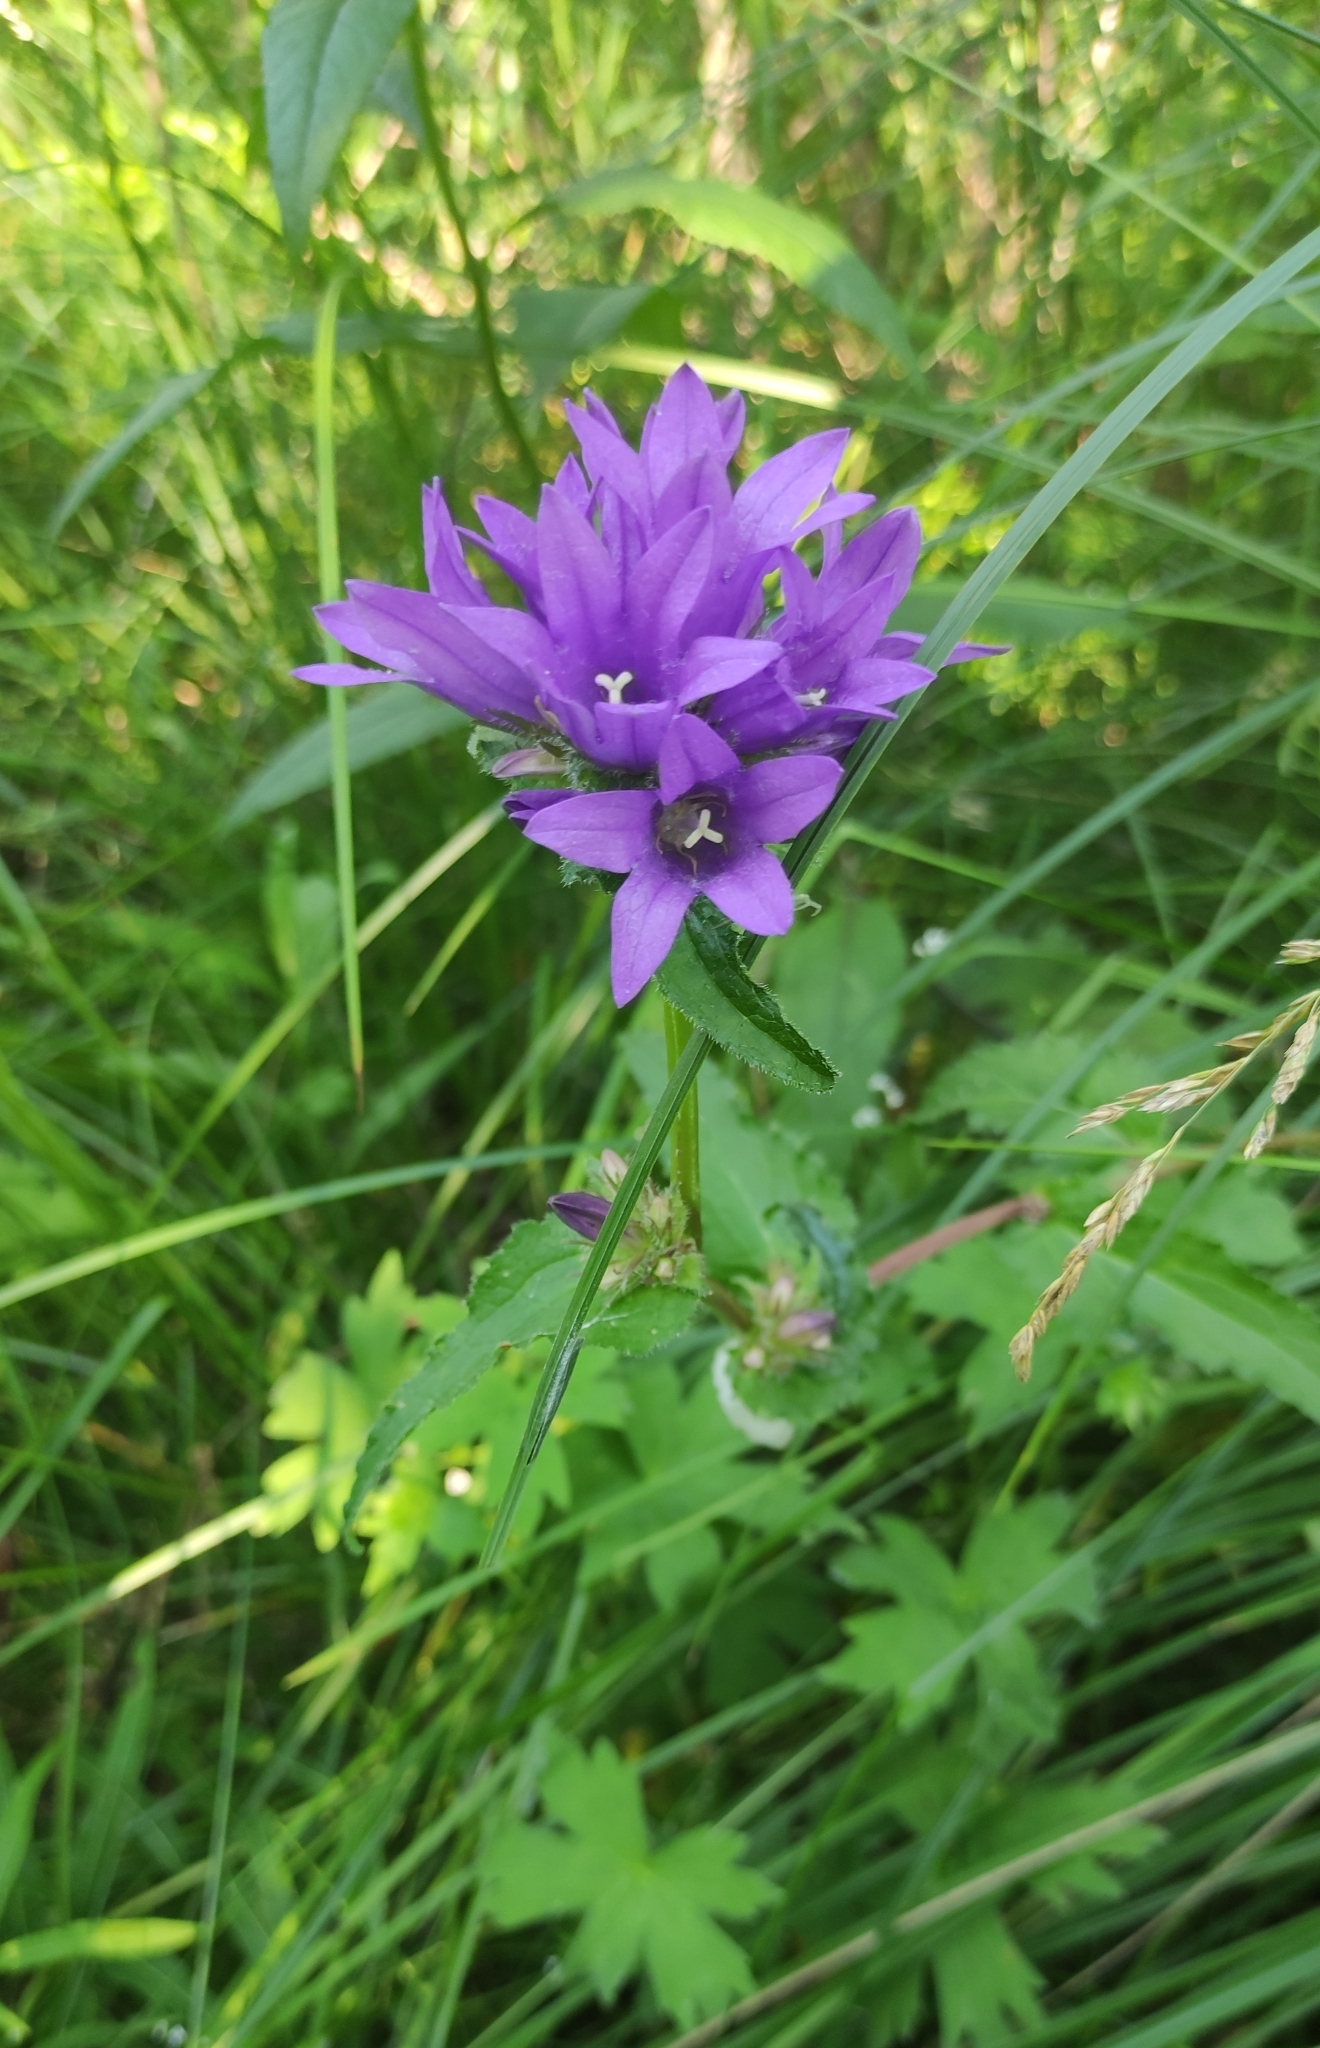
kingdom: Plantae
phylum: Tracheophyta
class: Magnoliopsida
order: Asterales
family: Campanulaceae
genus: Campanula
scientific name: Campanula glomerata
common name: Clustered bellflower
